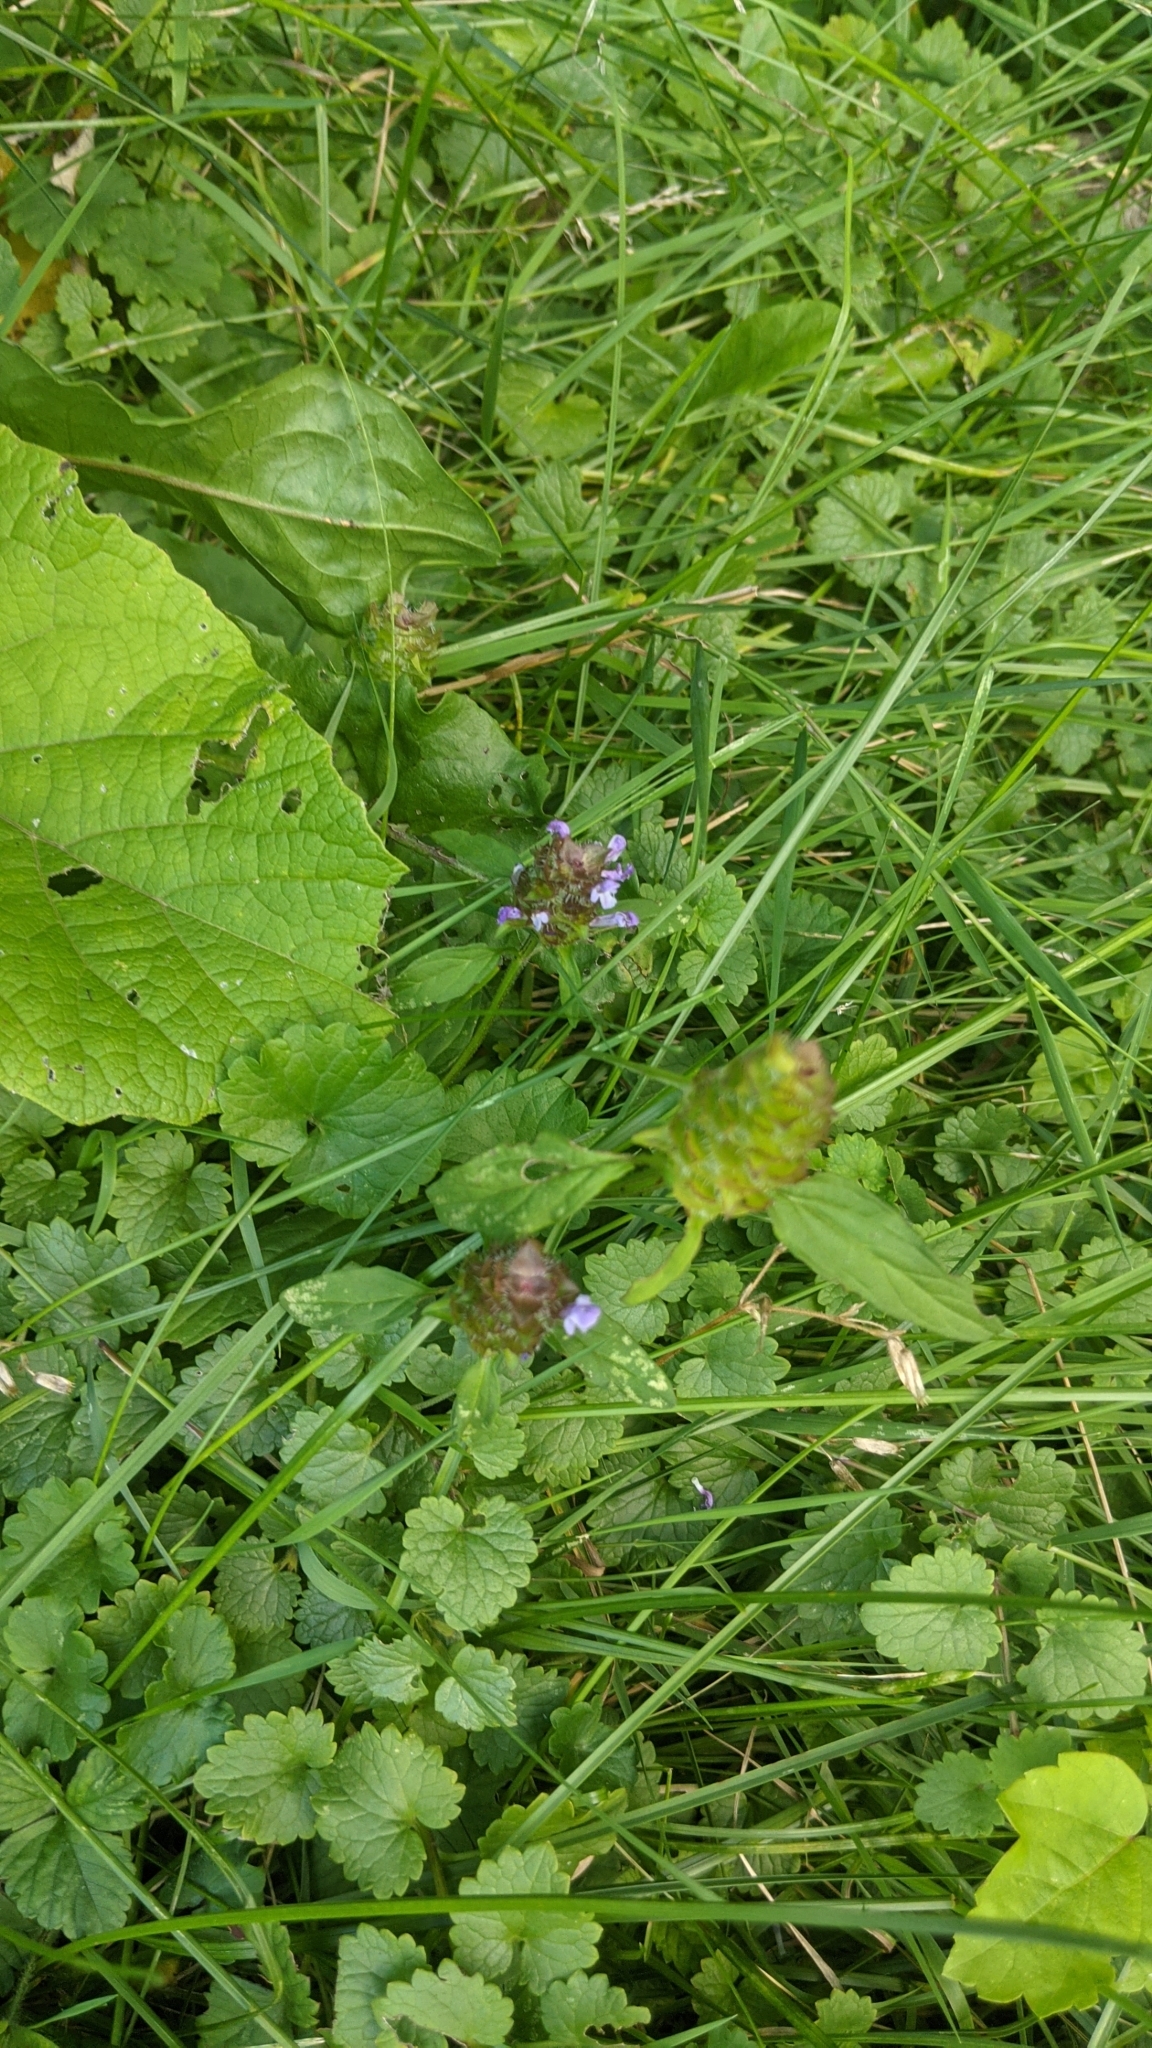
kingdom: Plantae
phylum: Tracheophyta
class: Magnoliopsida
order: Lamiales
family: Lamiaceae
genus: Prunella
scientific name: Prunella vulgaris
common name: Heal-all
